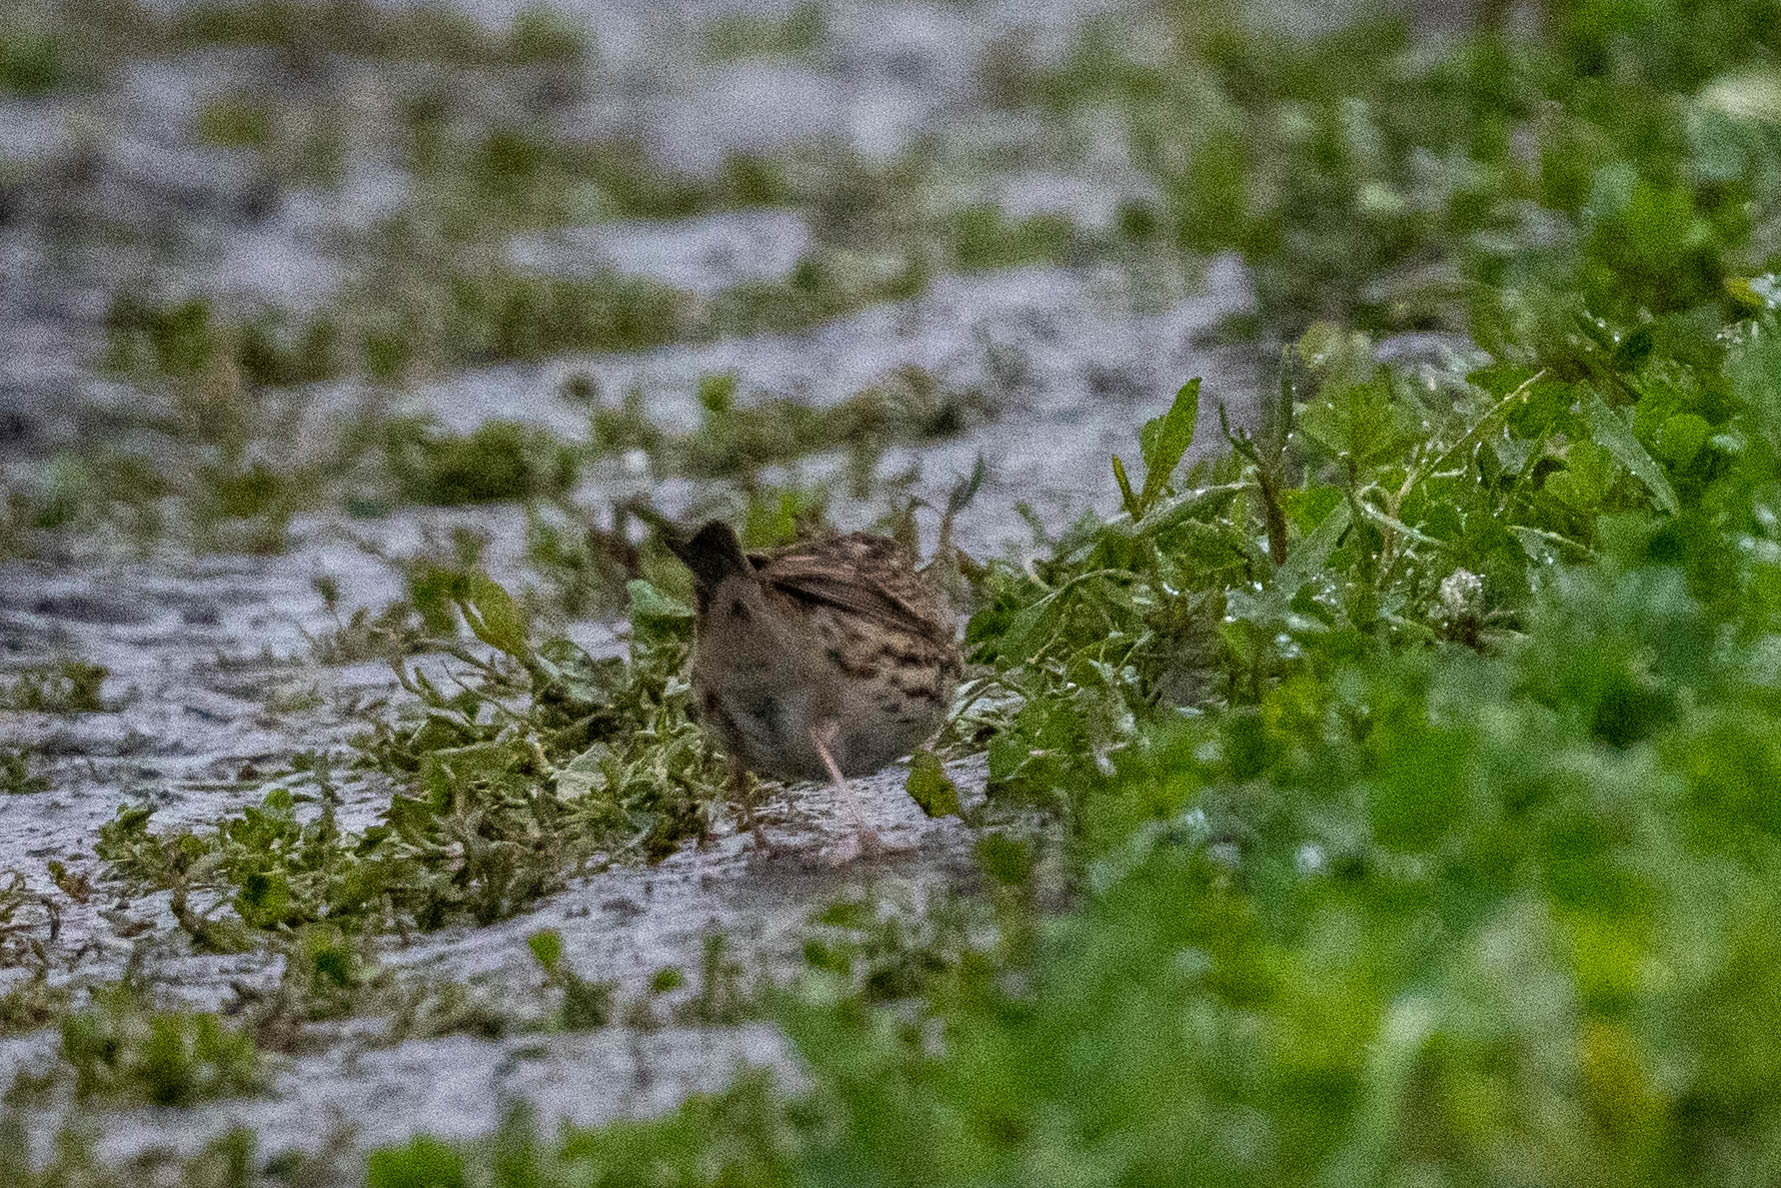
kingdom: Animalia
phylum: Chordata
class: Aves
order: Passeriformes
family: Passerellidae
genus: Passerculus
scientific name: Passerculus sandwichensis
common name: Savannah sparrow
